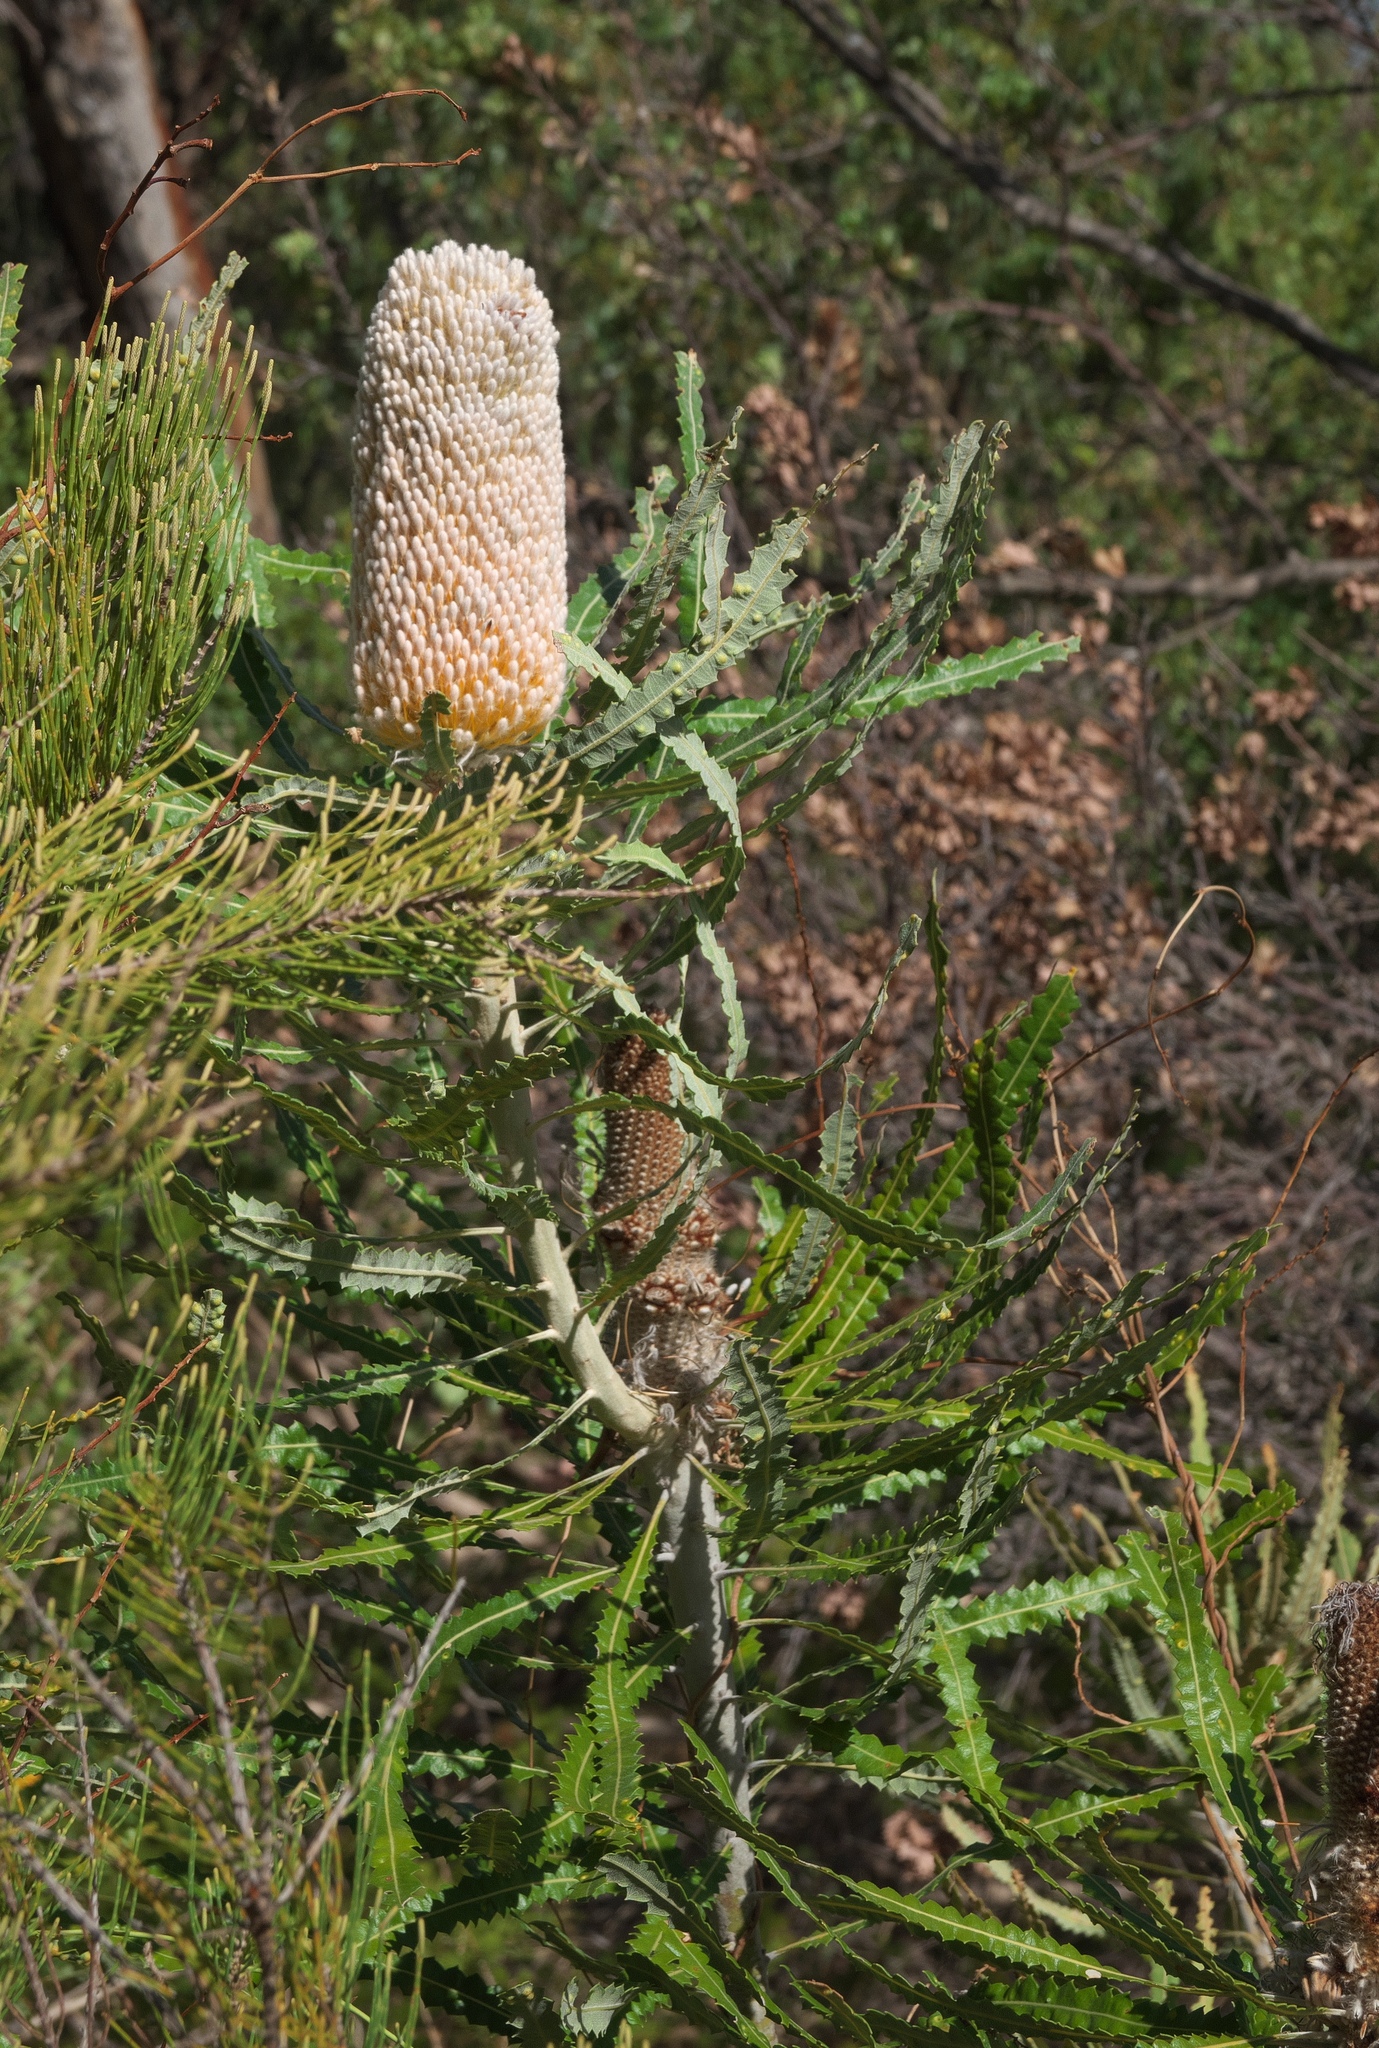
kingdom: Plantae
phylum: Tracheophyta
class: Magnoliopsida
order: Proteales
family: Proteaceae
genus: Banksia
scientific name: Banksia prionotes
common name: Acorn banksia
